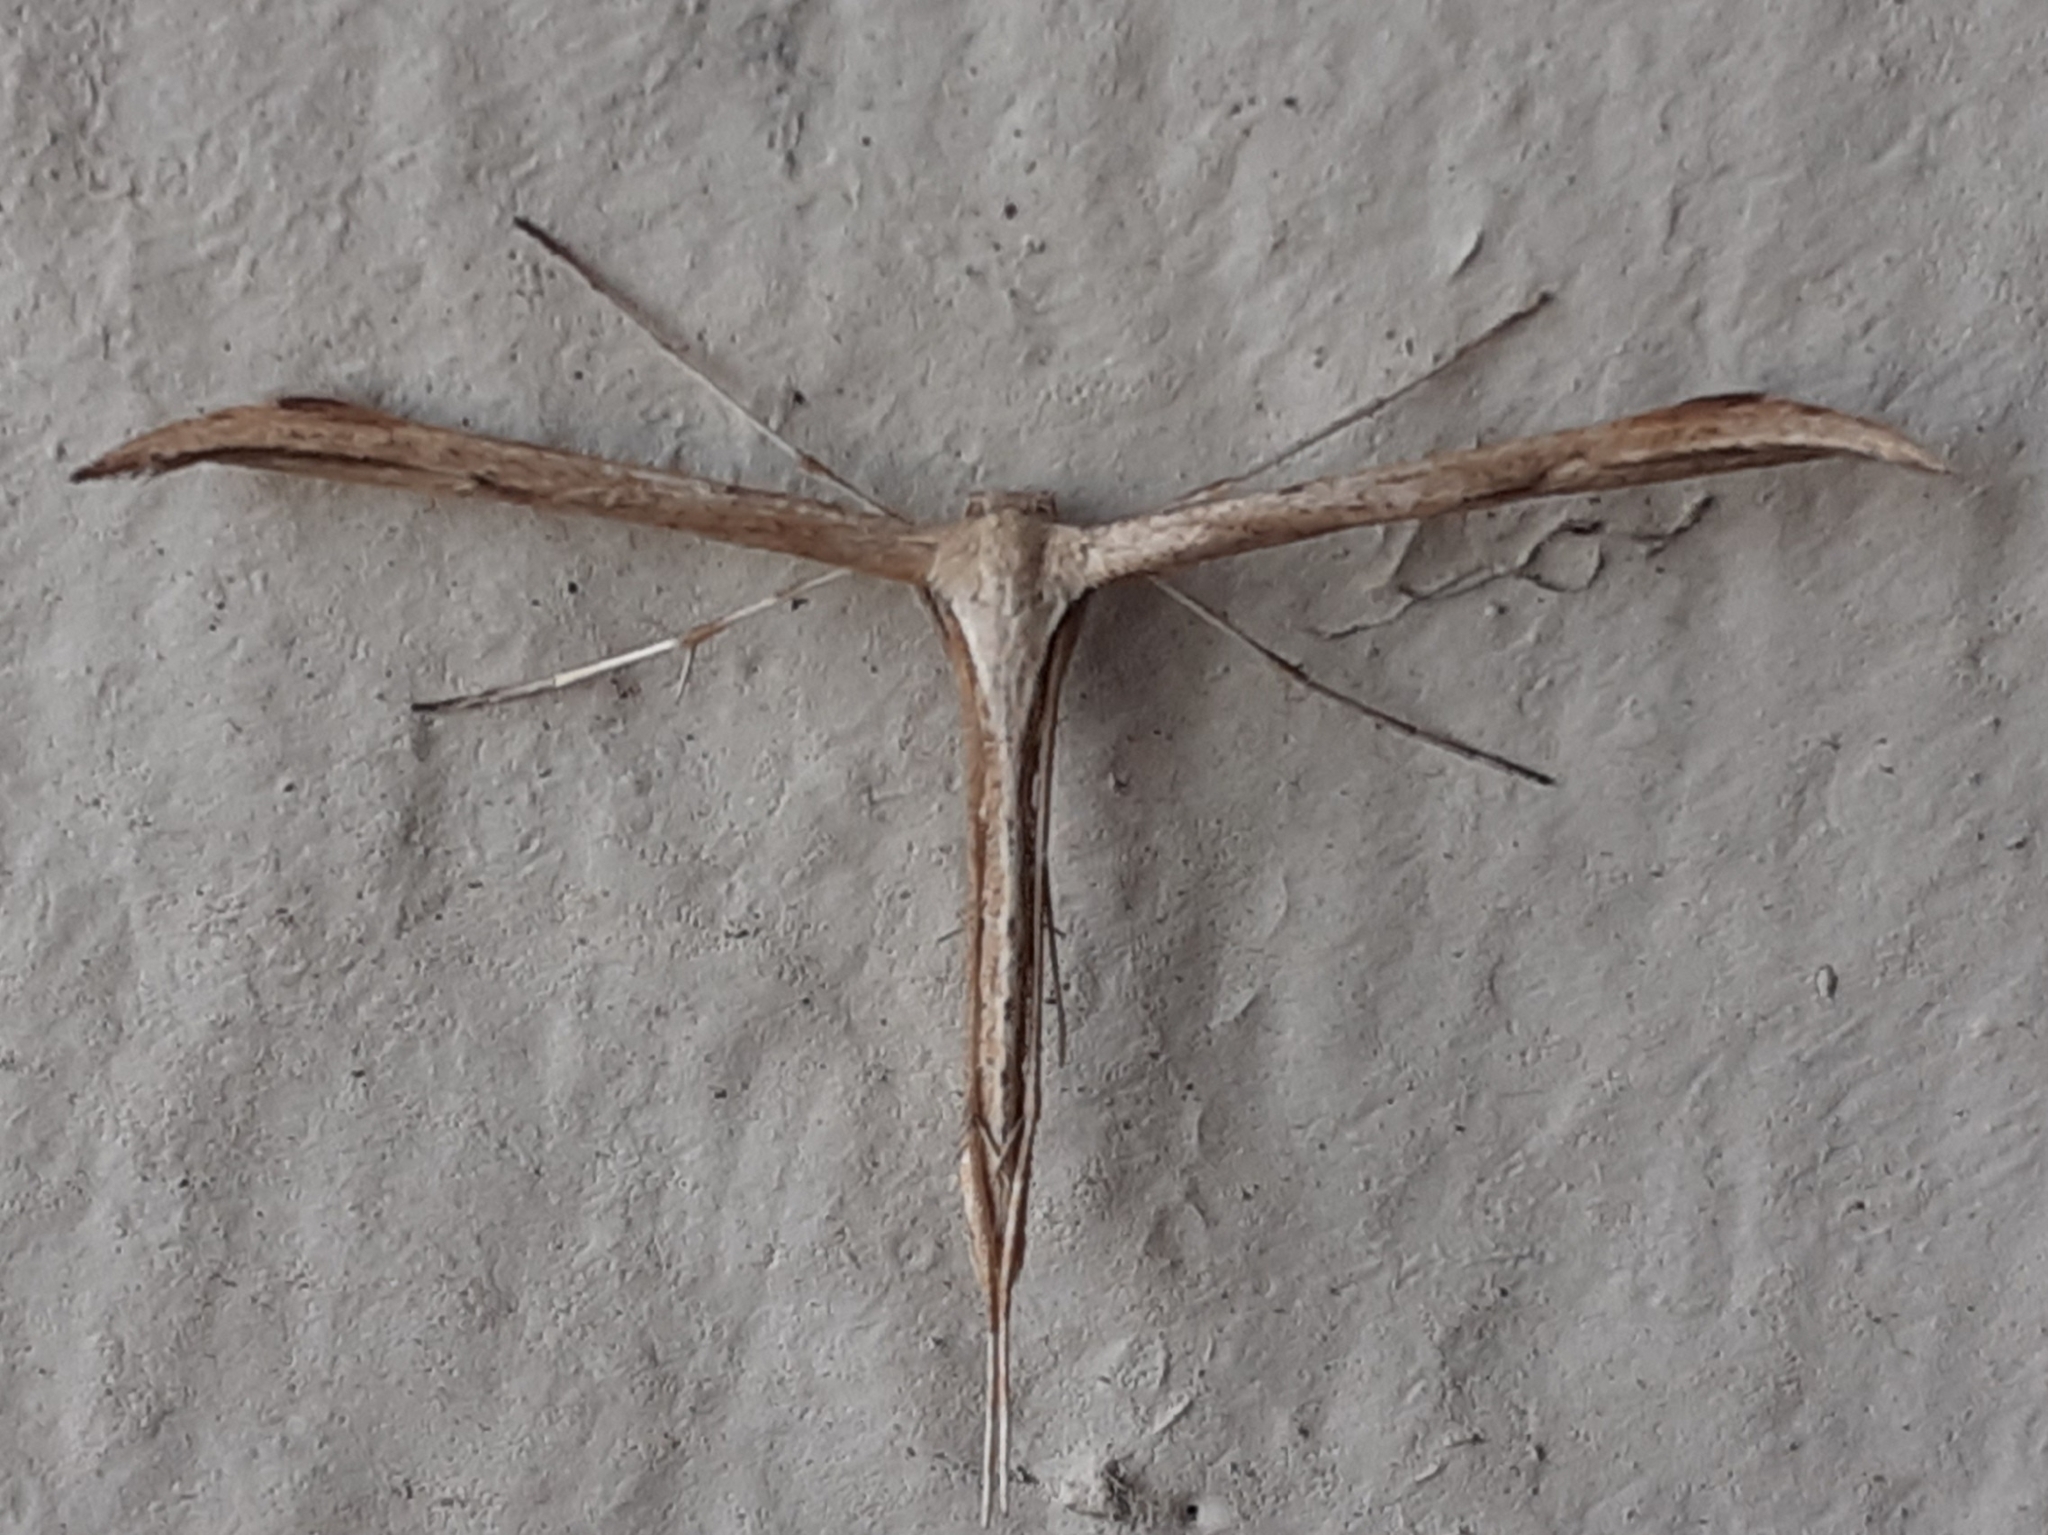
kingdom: Animalia
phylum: Arthropoda
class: Insecta
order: Lepidoptera
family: Pterophoridae
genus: Emmelina
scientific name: Emmelina monodactyla
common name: Common plume
